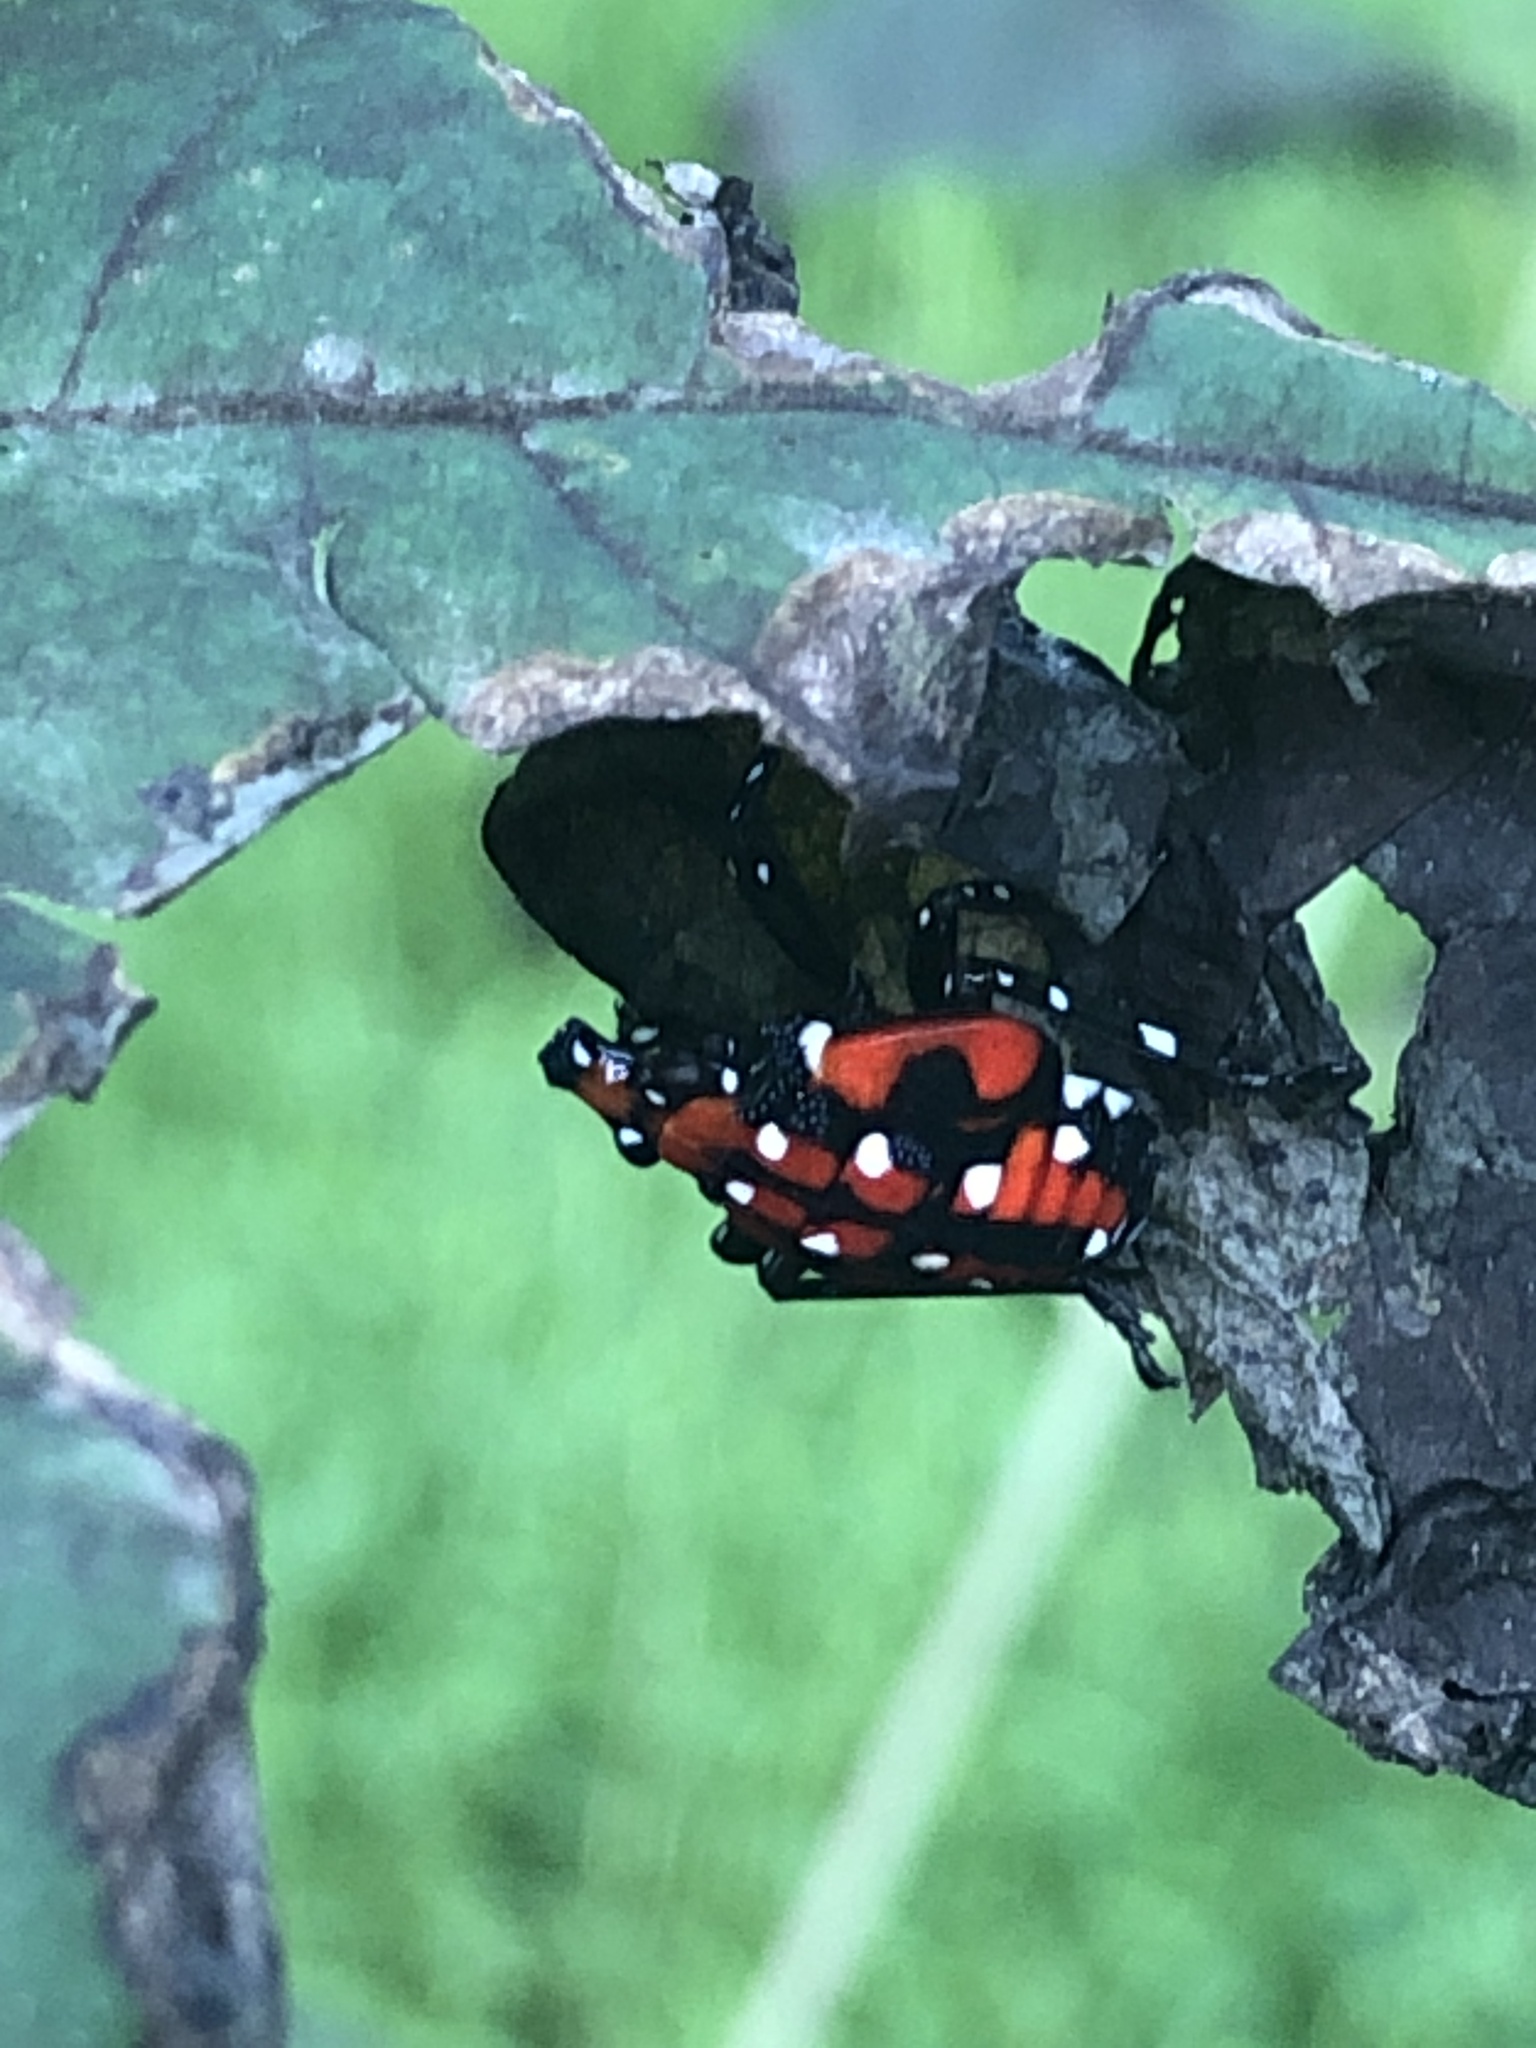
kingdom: Animalia
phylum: Arthropoda
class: Insecta
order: Hemiptera
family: Fulgoridae
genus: Lycorma
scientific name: Lycorma delicatula
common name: Spotted lanternfly
